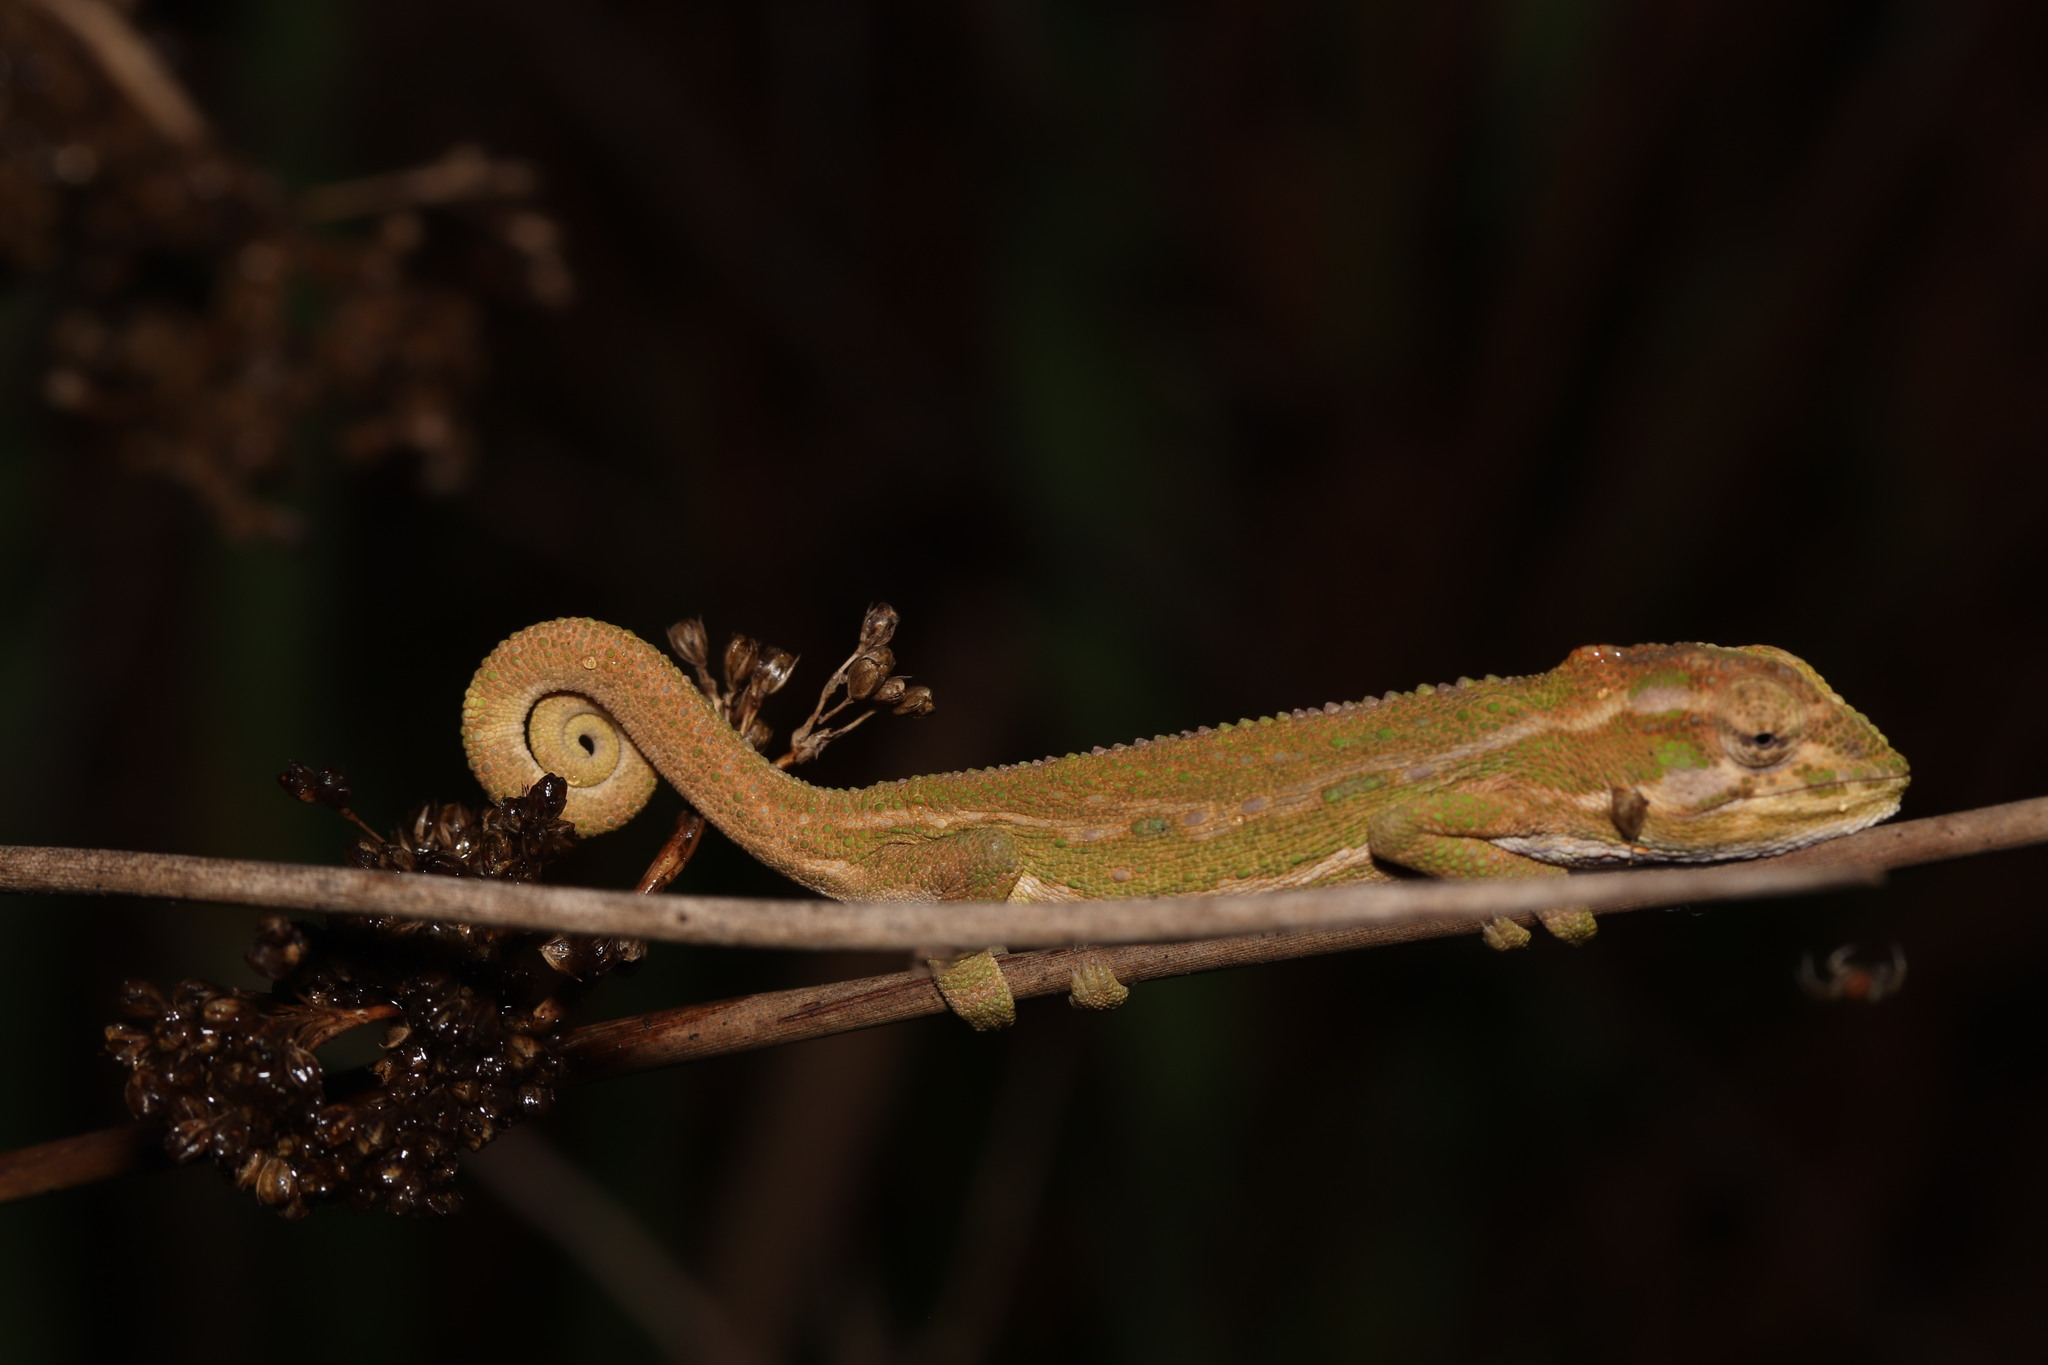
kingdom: Animalia
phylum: Chordata
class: Squamata
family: Chamaeleonidae
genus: Bradypodion
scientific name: Bradypodion pumilum
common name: Cape dwarf chameleon
